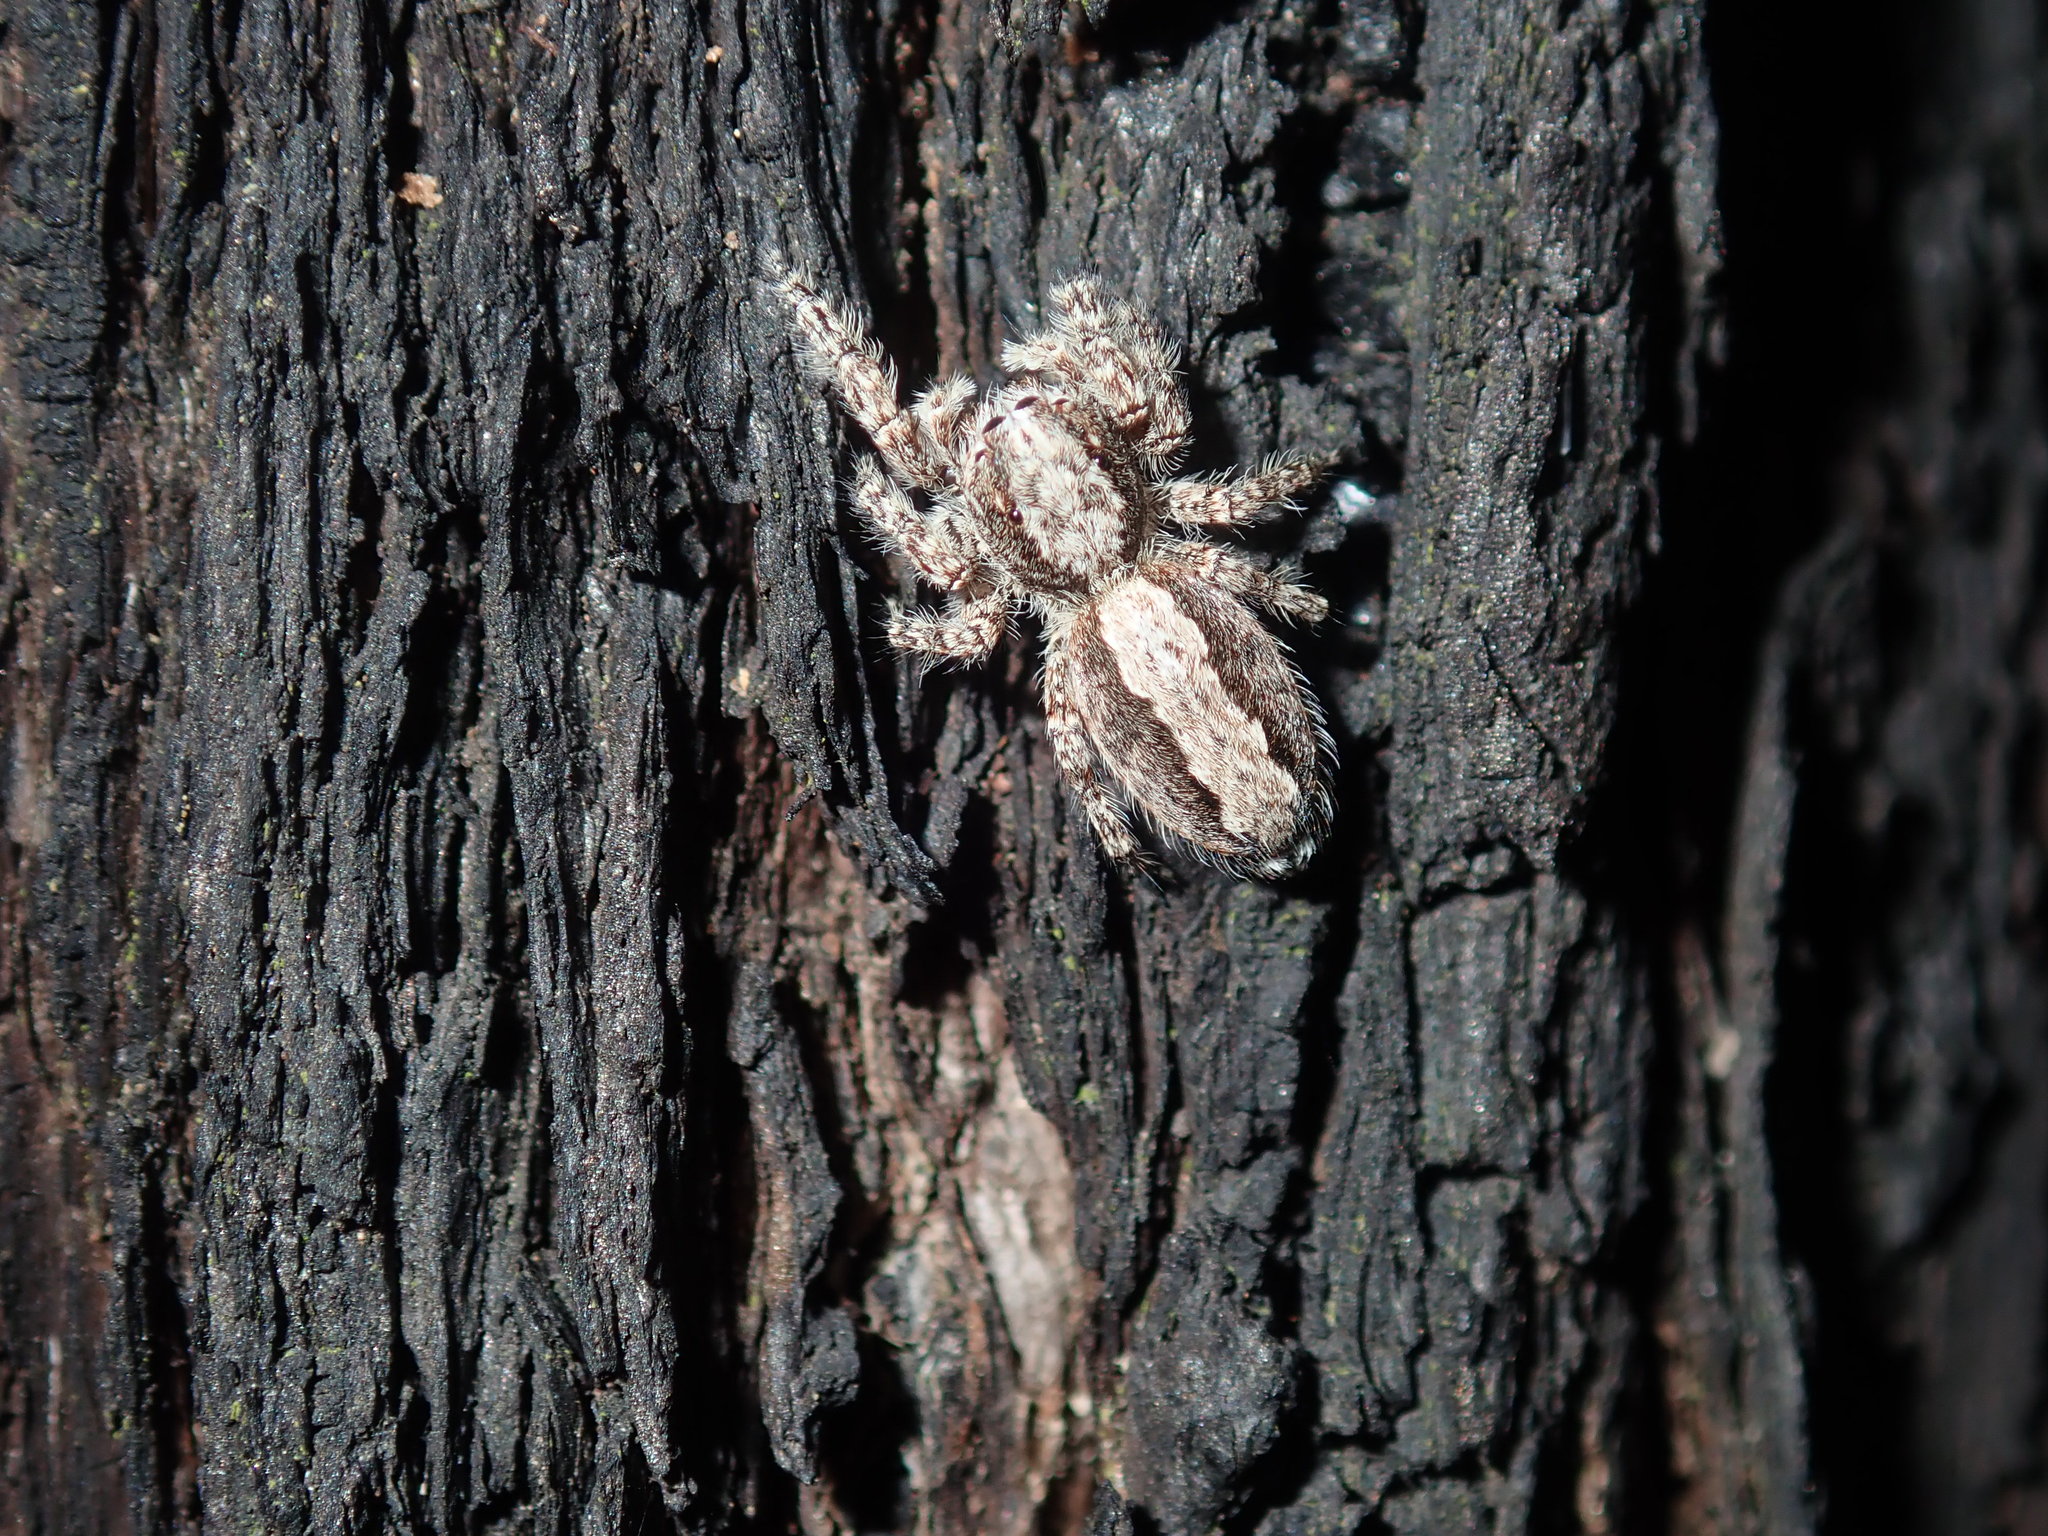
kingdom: Animalia
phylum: Arthropoda
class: Arachnida
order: Araneae
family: Salticidae
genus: Clynotis
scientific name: Clynotis severus
